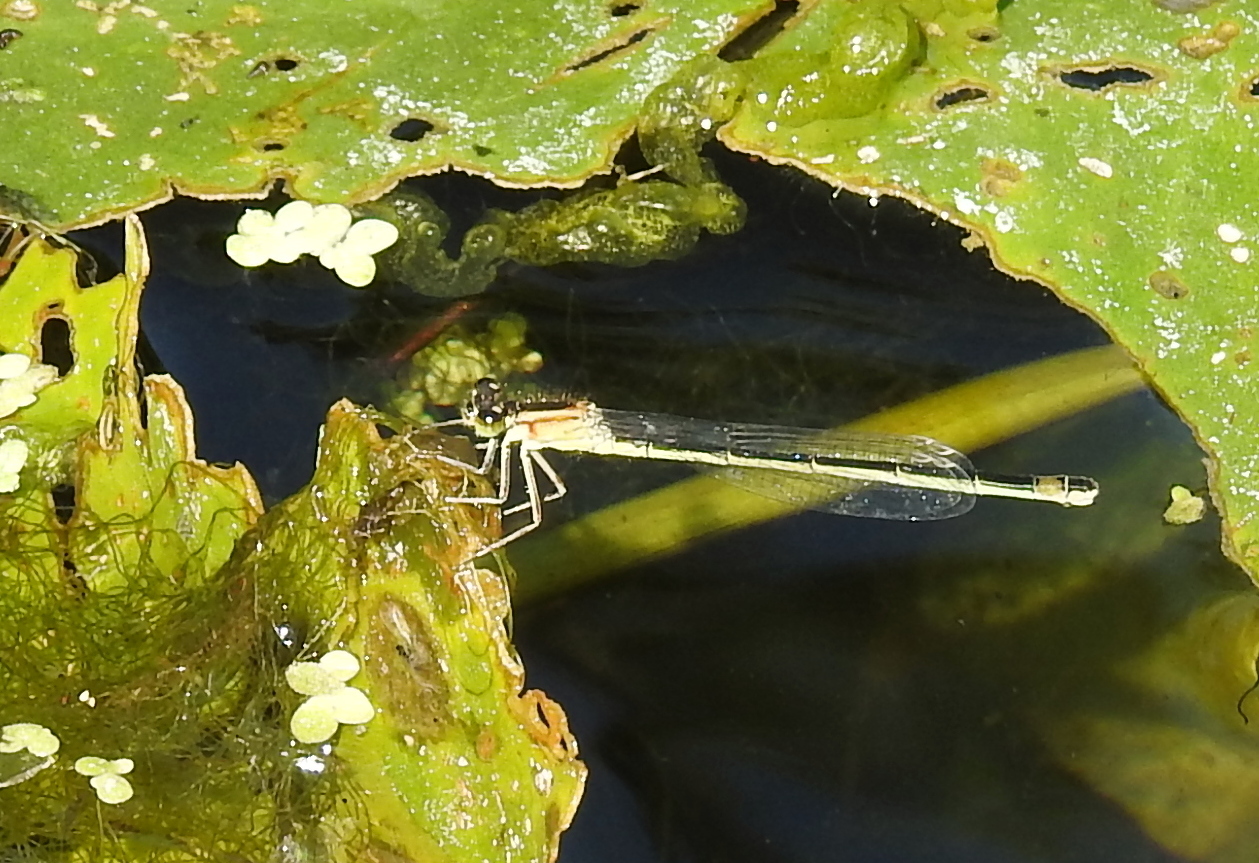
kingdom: Animalia
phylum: Arthropoda
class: Insecta
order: Odonata
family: Coenagrionidae
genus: Ischnura
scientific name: Ischnura elegans
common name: Blue-tailed damselfly
